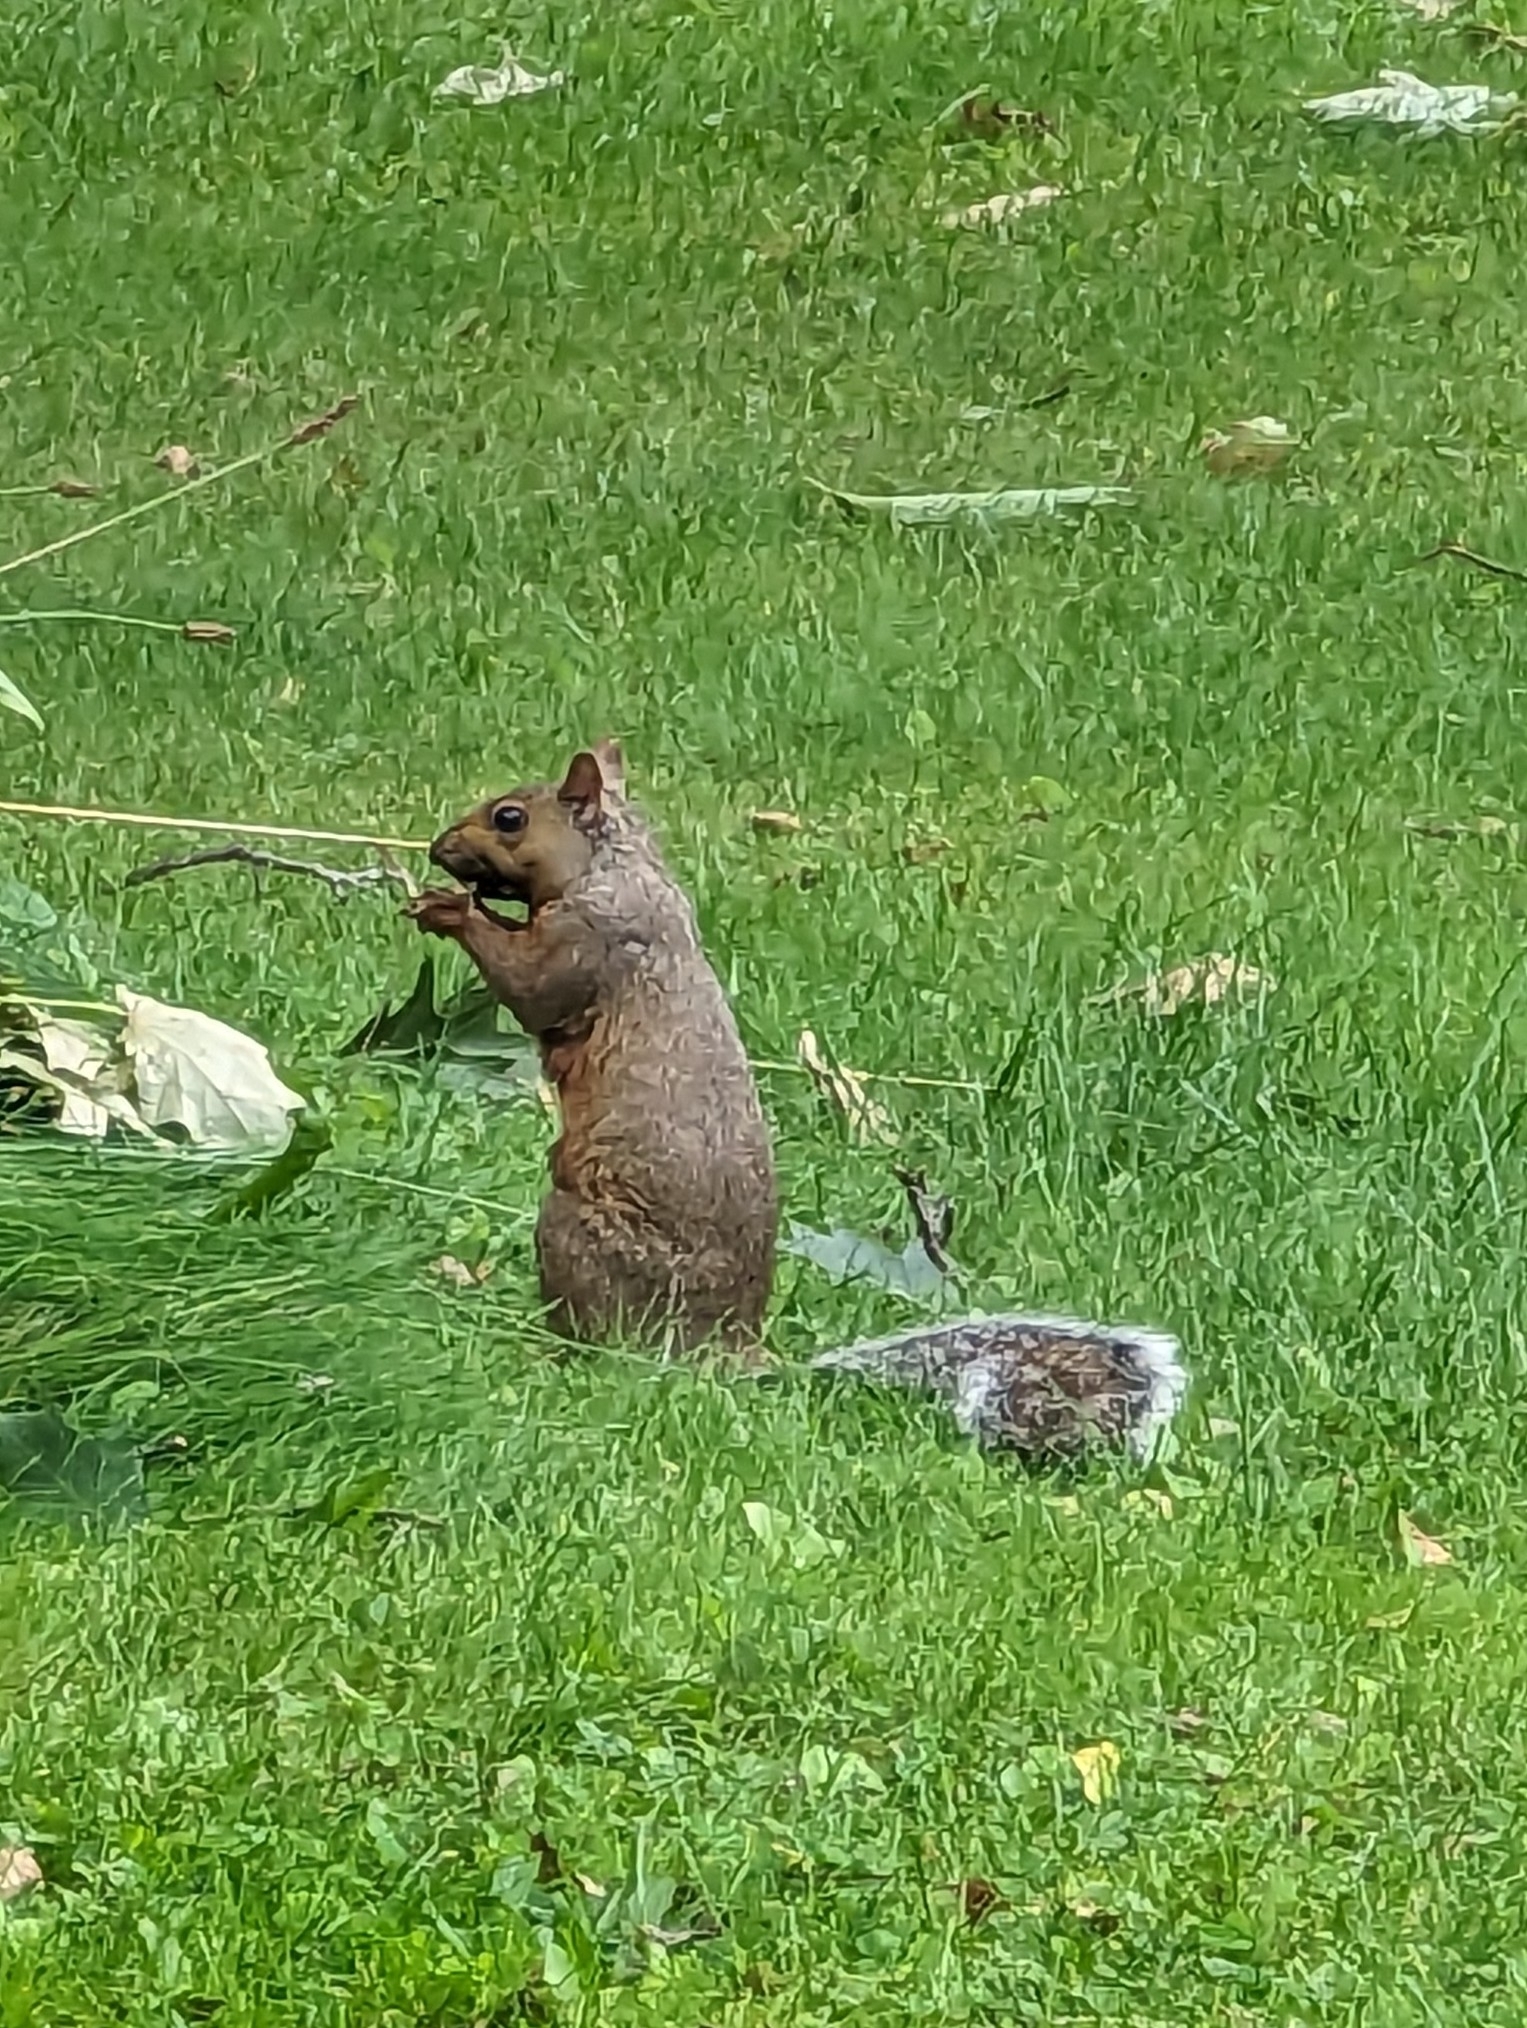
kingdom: Animalia
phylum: Chordata
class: Mammalia
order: Rodentia
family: Sciuridae
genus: Sciurus
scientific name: Sciurus carolinensis
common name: Eastern gray squirrel
